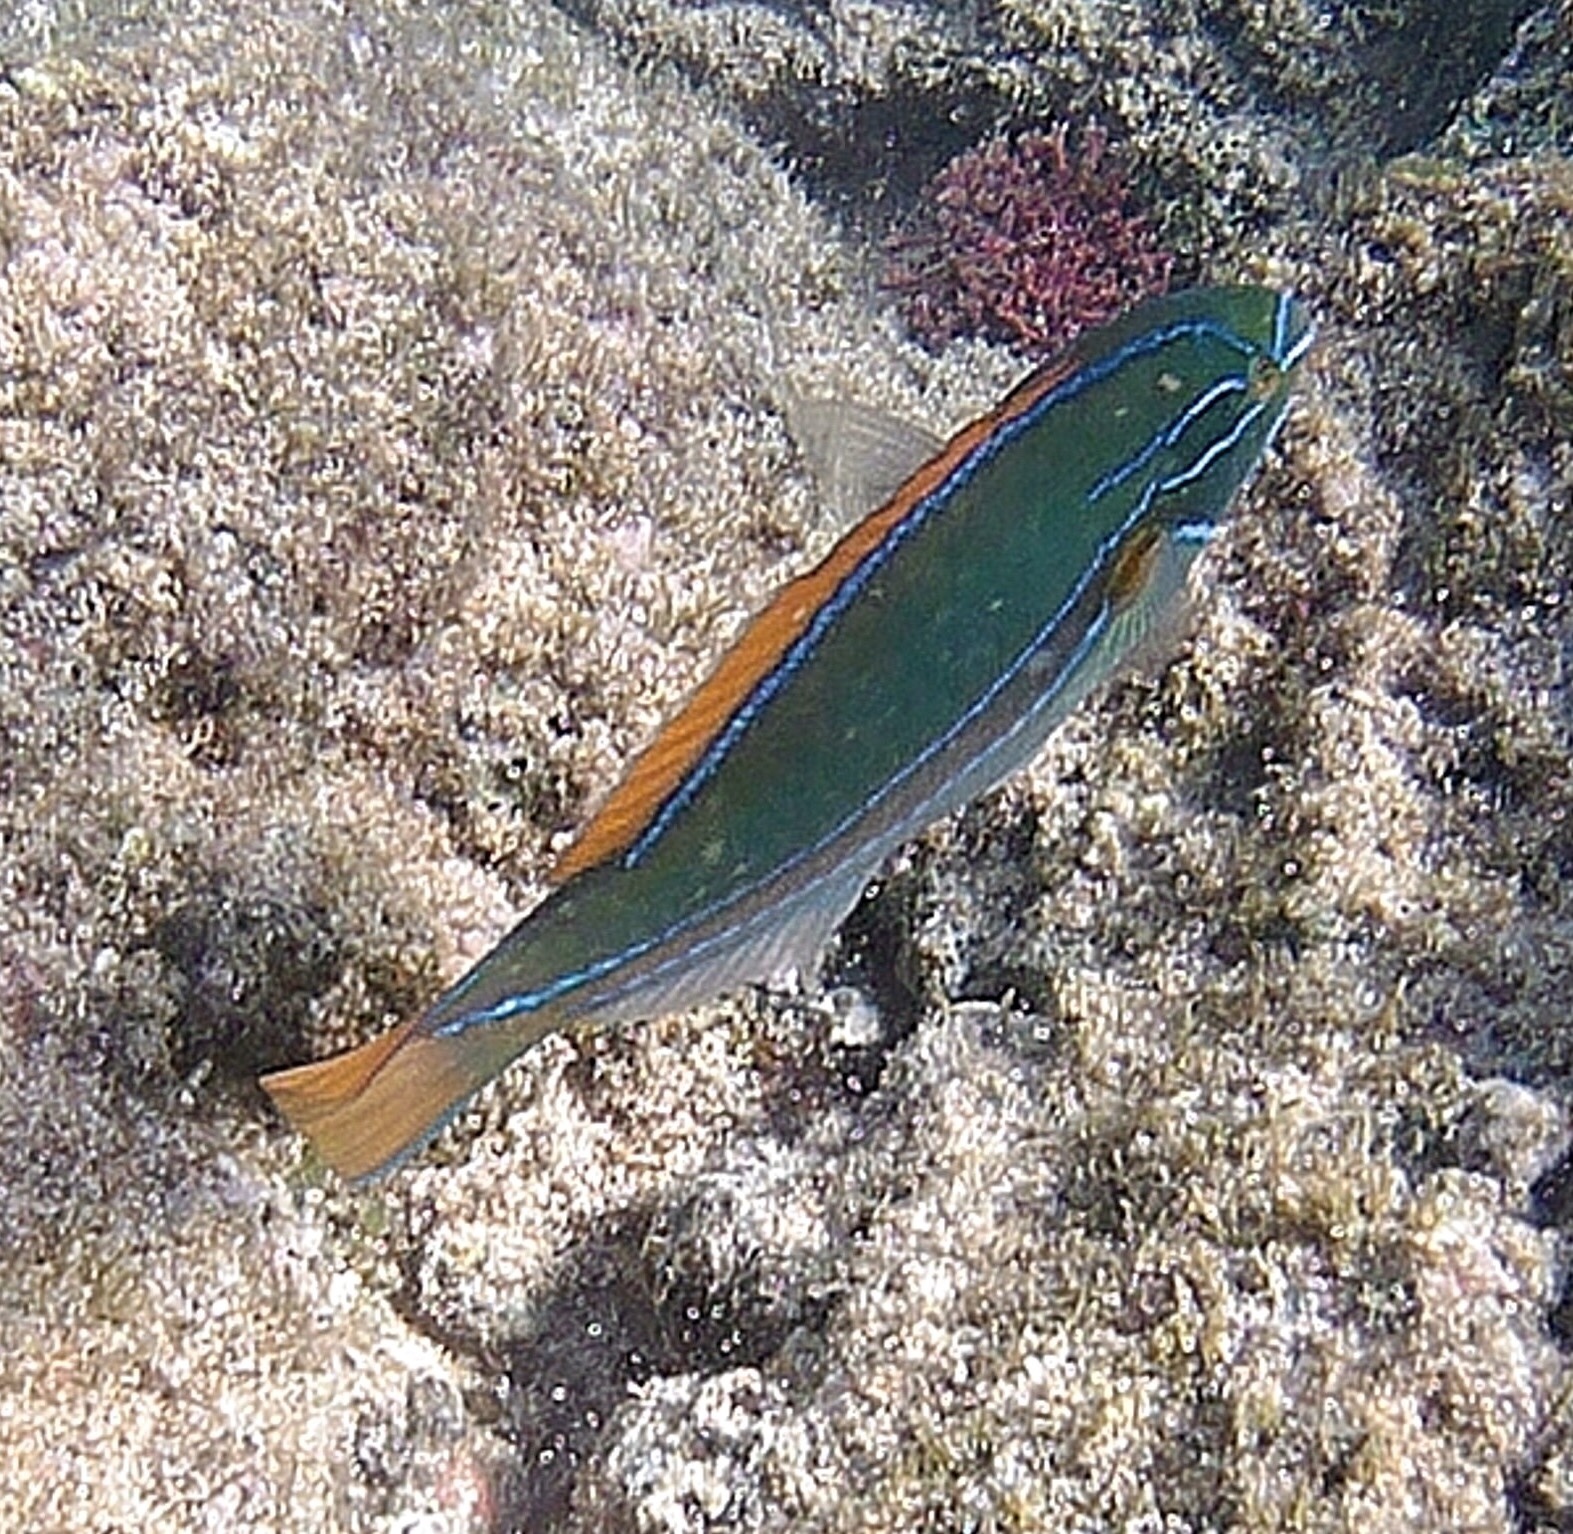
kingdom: Animalia
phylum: Chordata
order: Perciformes
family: Labridae
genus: Stethojulis
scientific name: Stethojulis balteata
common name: Belted wrasse
